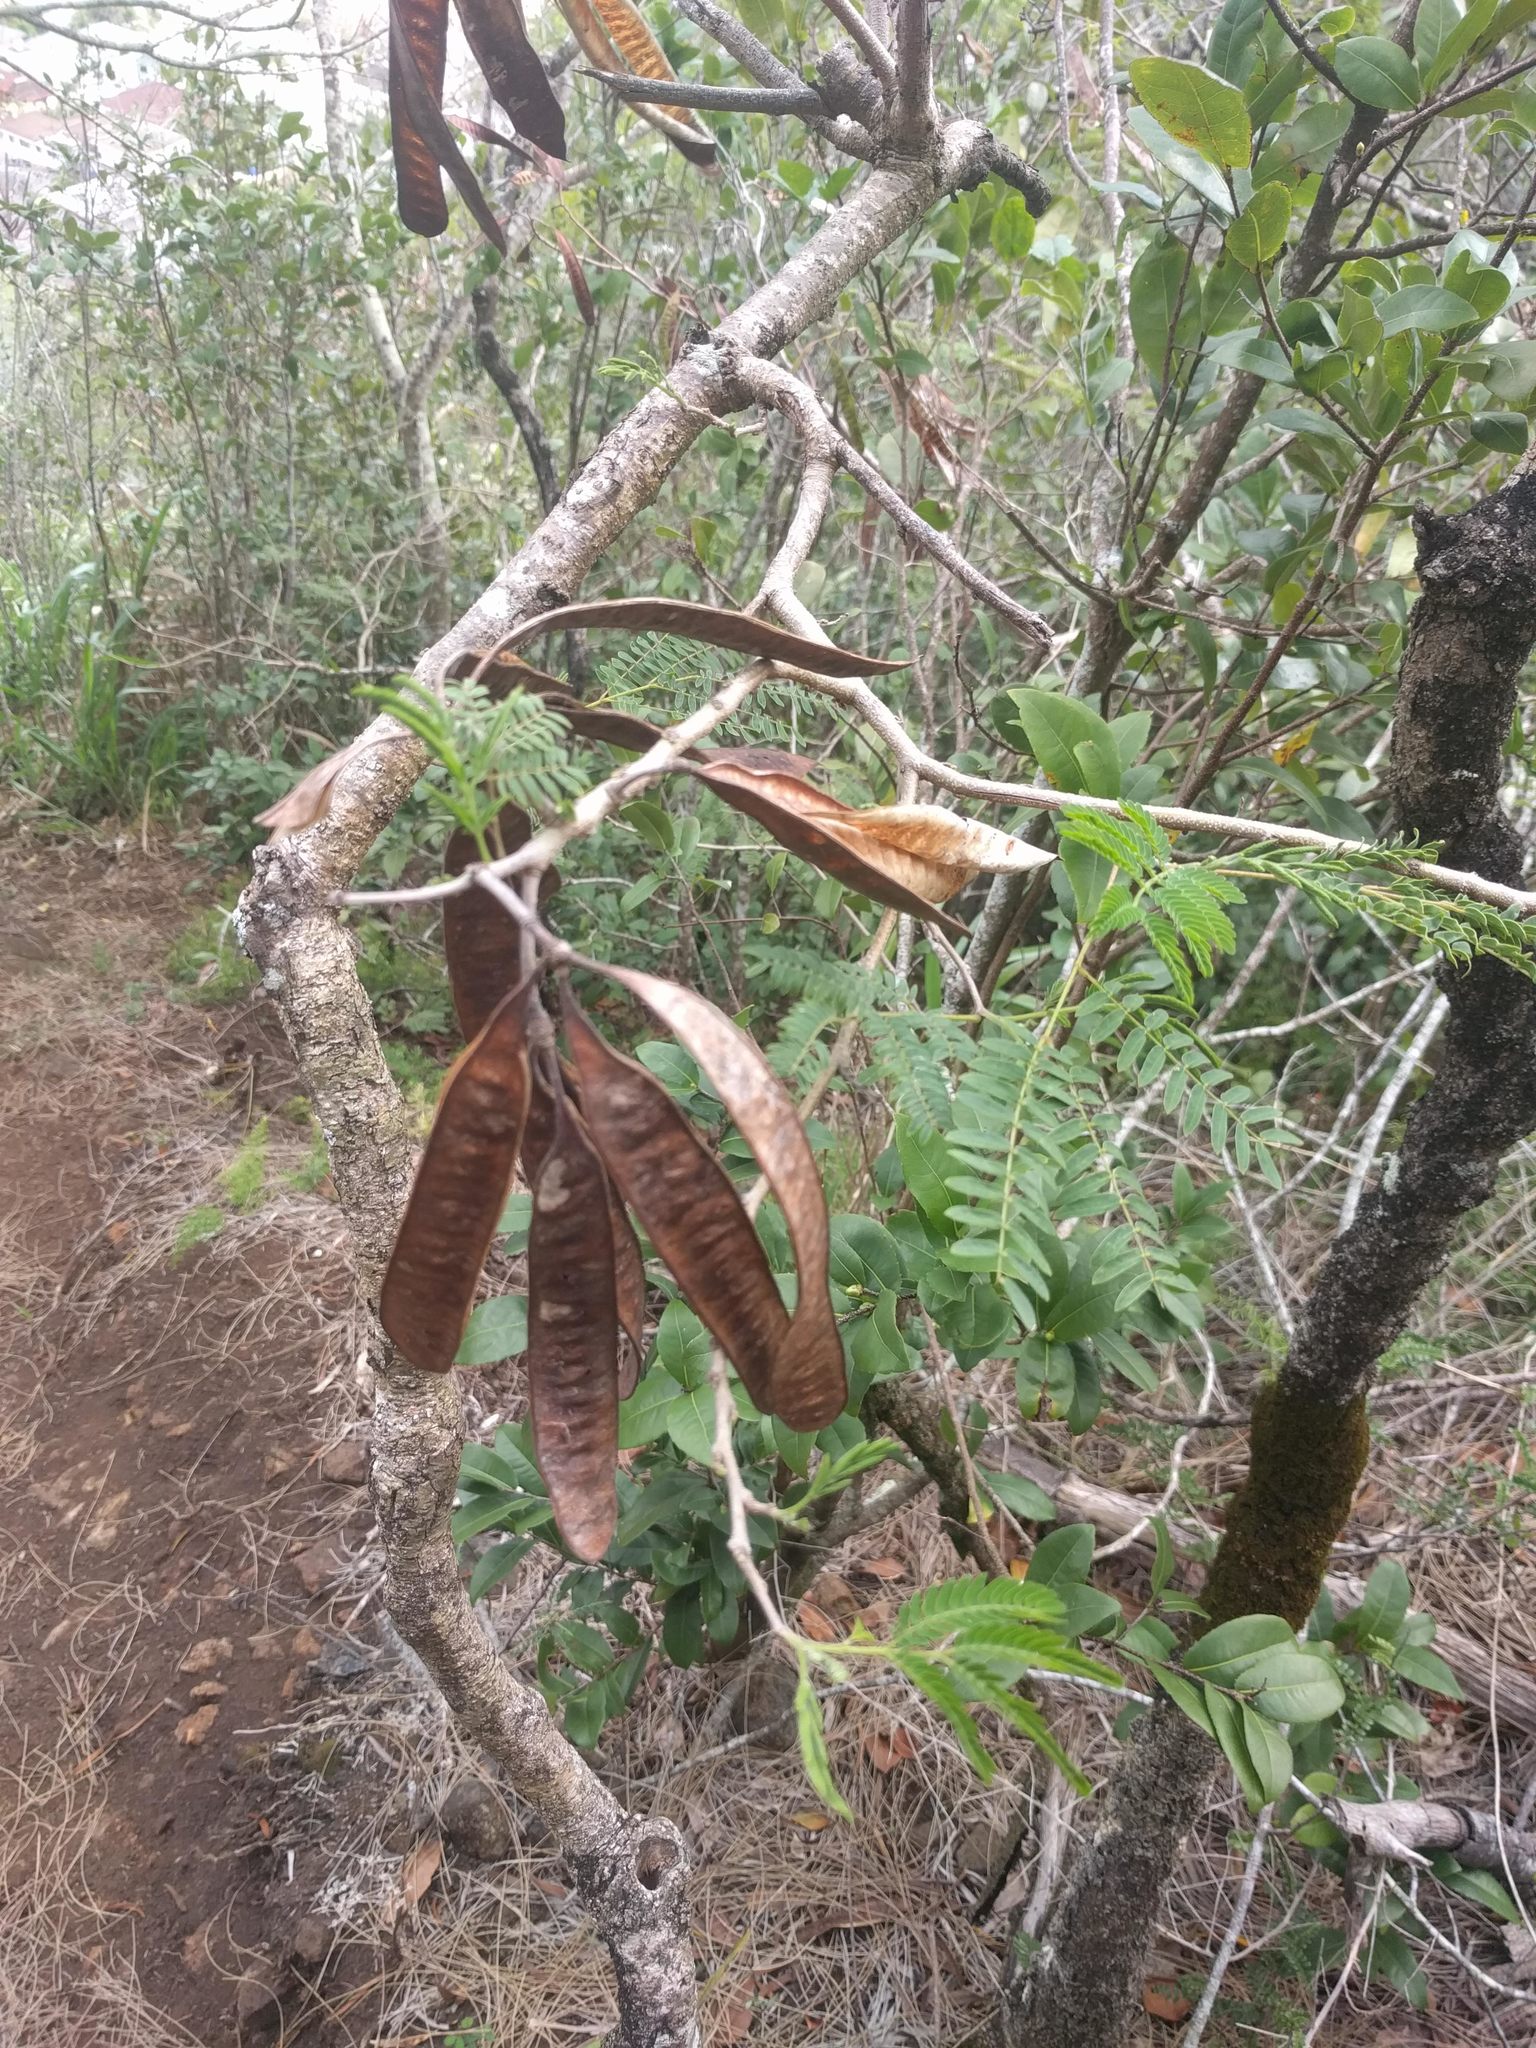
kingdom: Plantae
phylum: Tracheophyta
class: Magnoliopsida
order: Fabales
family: Fabaceae
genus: Leucaena
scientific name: Leucaena leucocephala
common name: White leadtree
